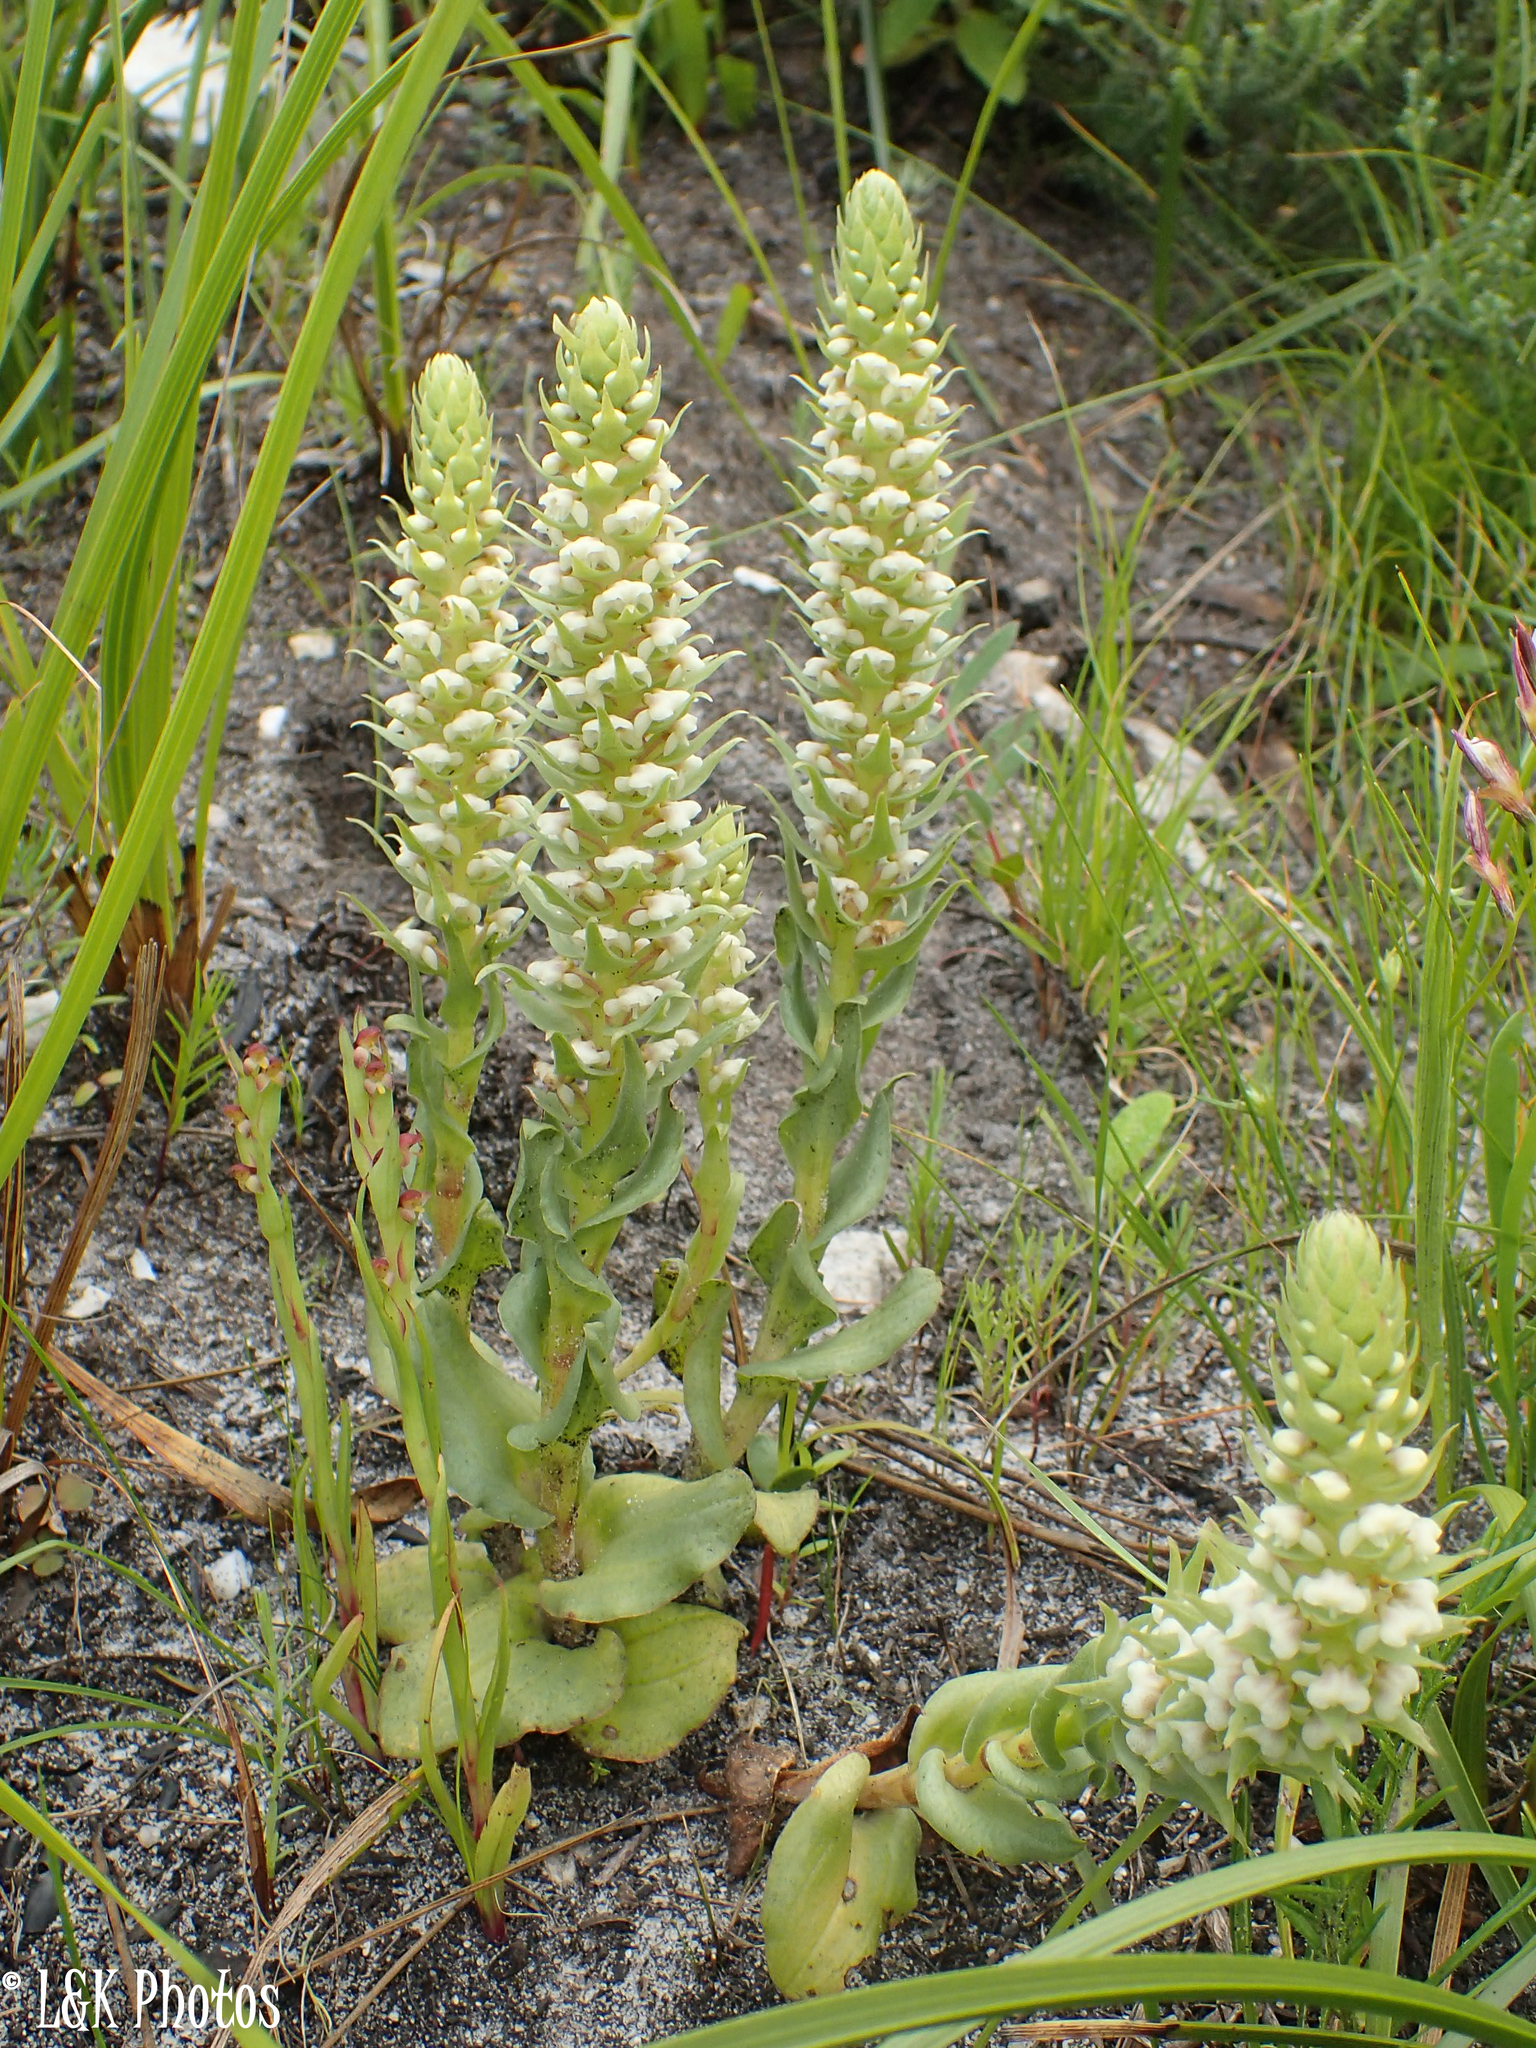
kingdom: Plantae
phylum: Tracheophyta
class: Liliopsida
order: Asparagales
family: Orchidaceae
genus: Satyrium
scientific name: Satyrium bicallosum
